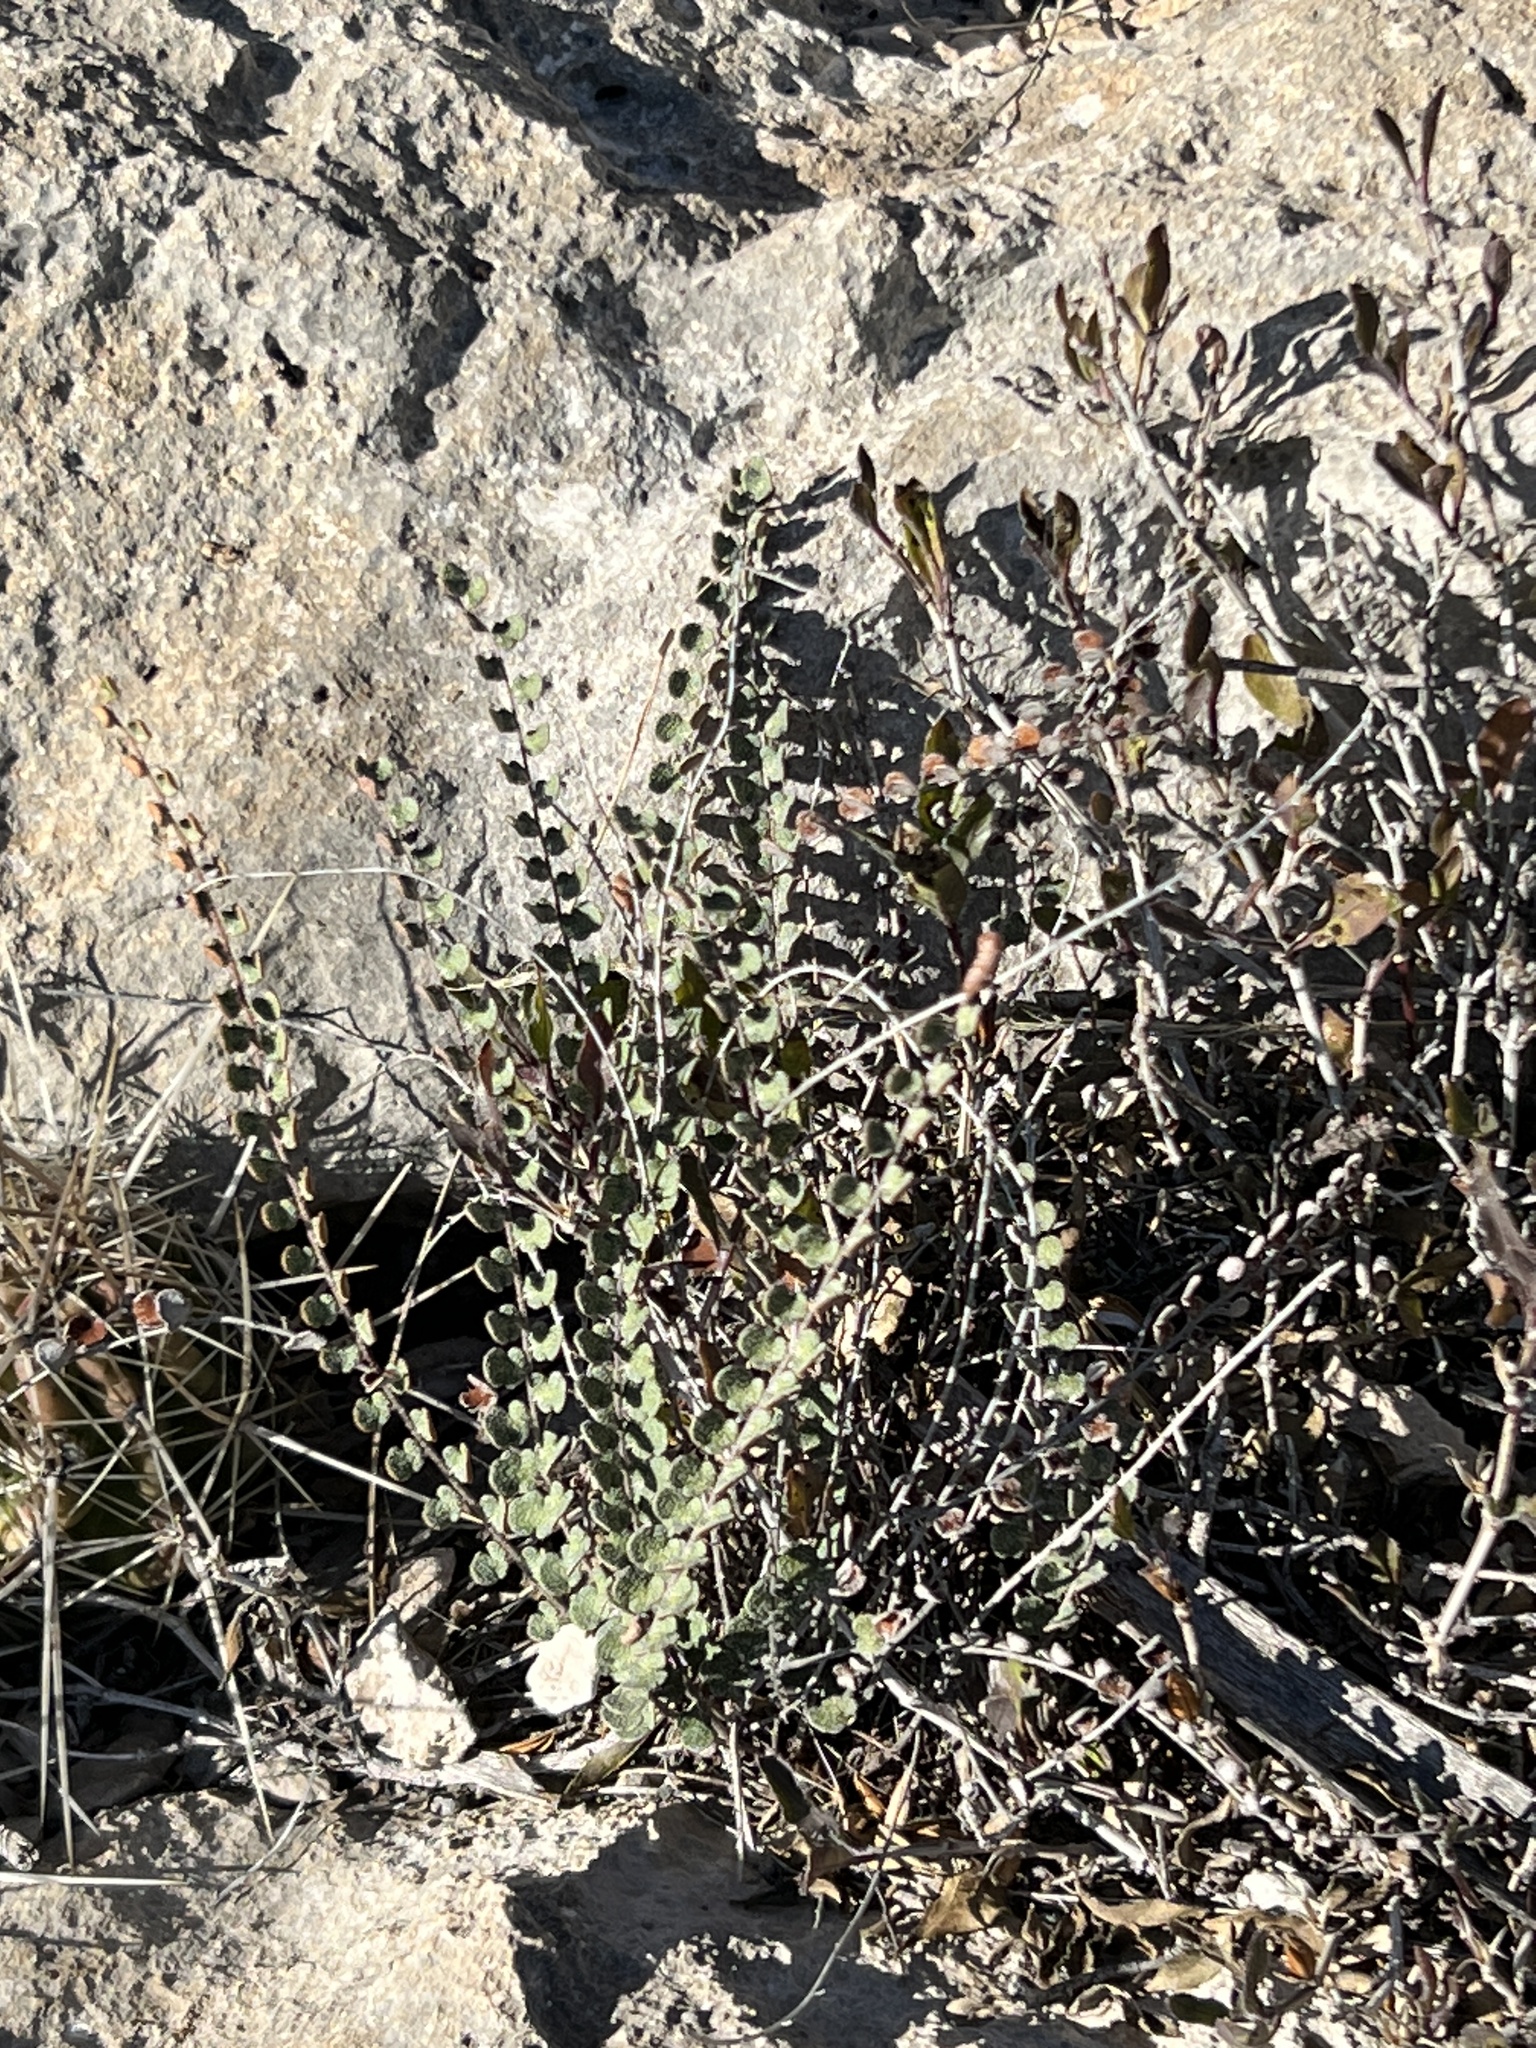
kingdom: Plantae
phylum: Tracheophyta
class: Polypodiopsida
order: Polypodiales
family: Pteridaceae
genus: Astrolepis
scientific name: Astrolepis cochisensis
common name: Scaly cloak fern
